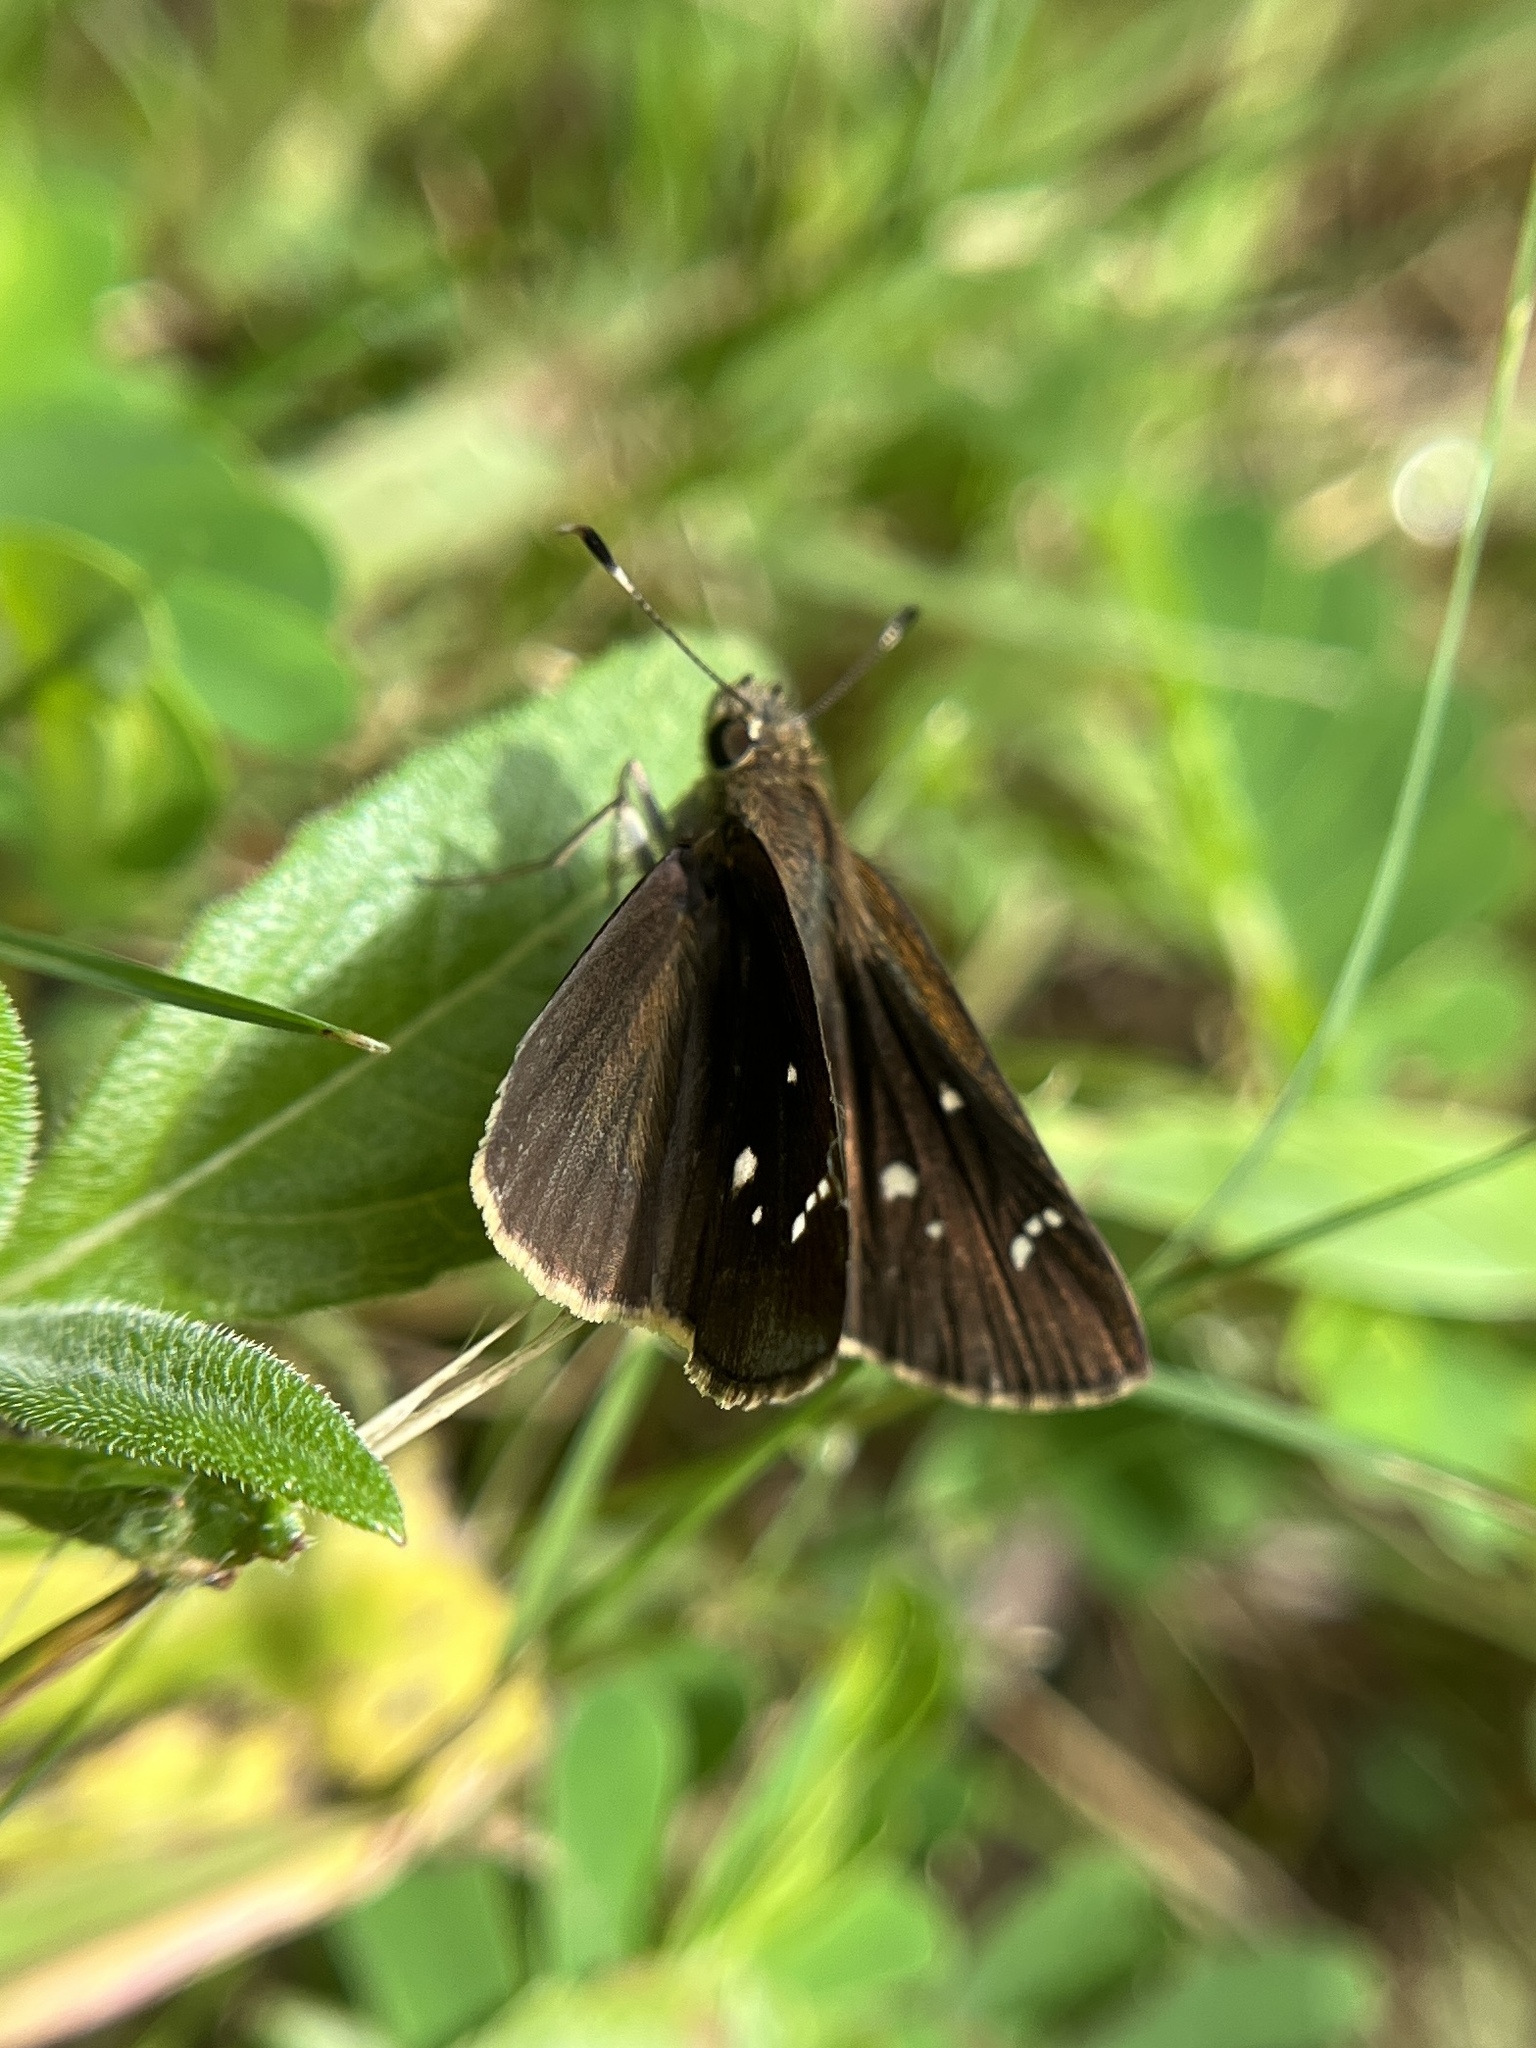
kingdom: Animalia
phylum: Arthropoda
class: Insecta
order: Lepidoptera
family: Hesperiidae
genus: Lerema
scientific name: Lerema accius
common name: Clouded skipper
